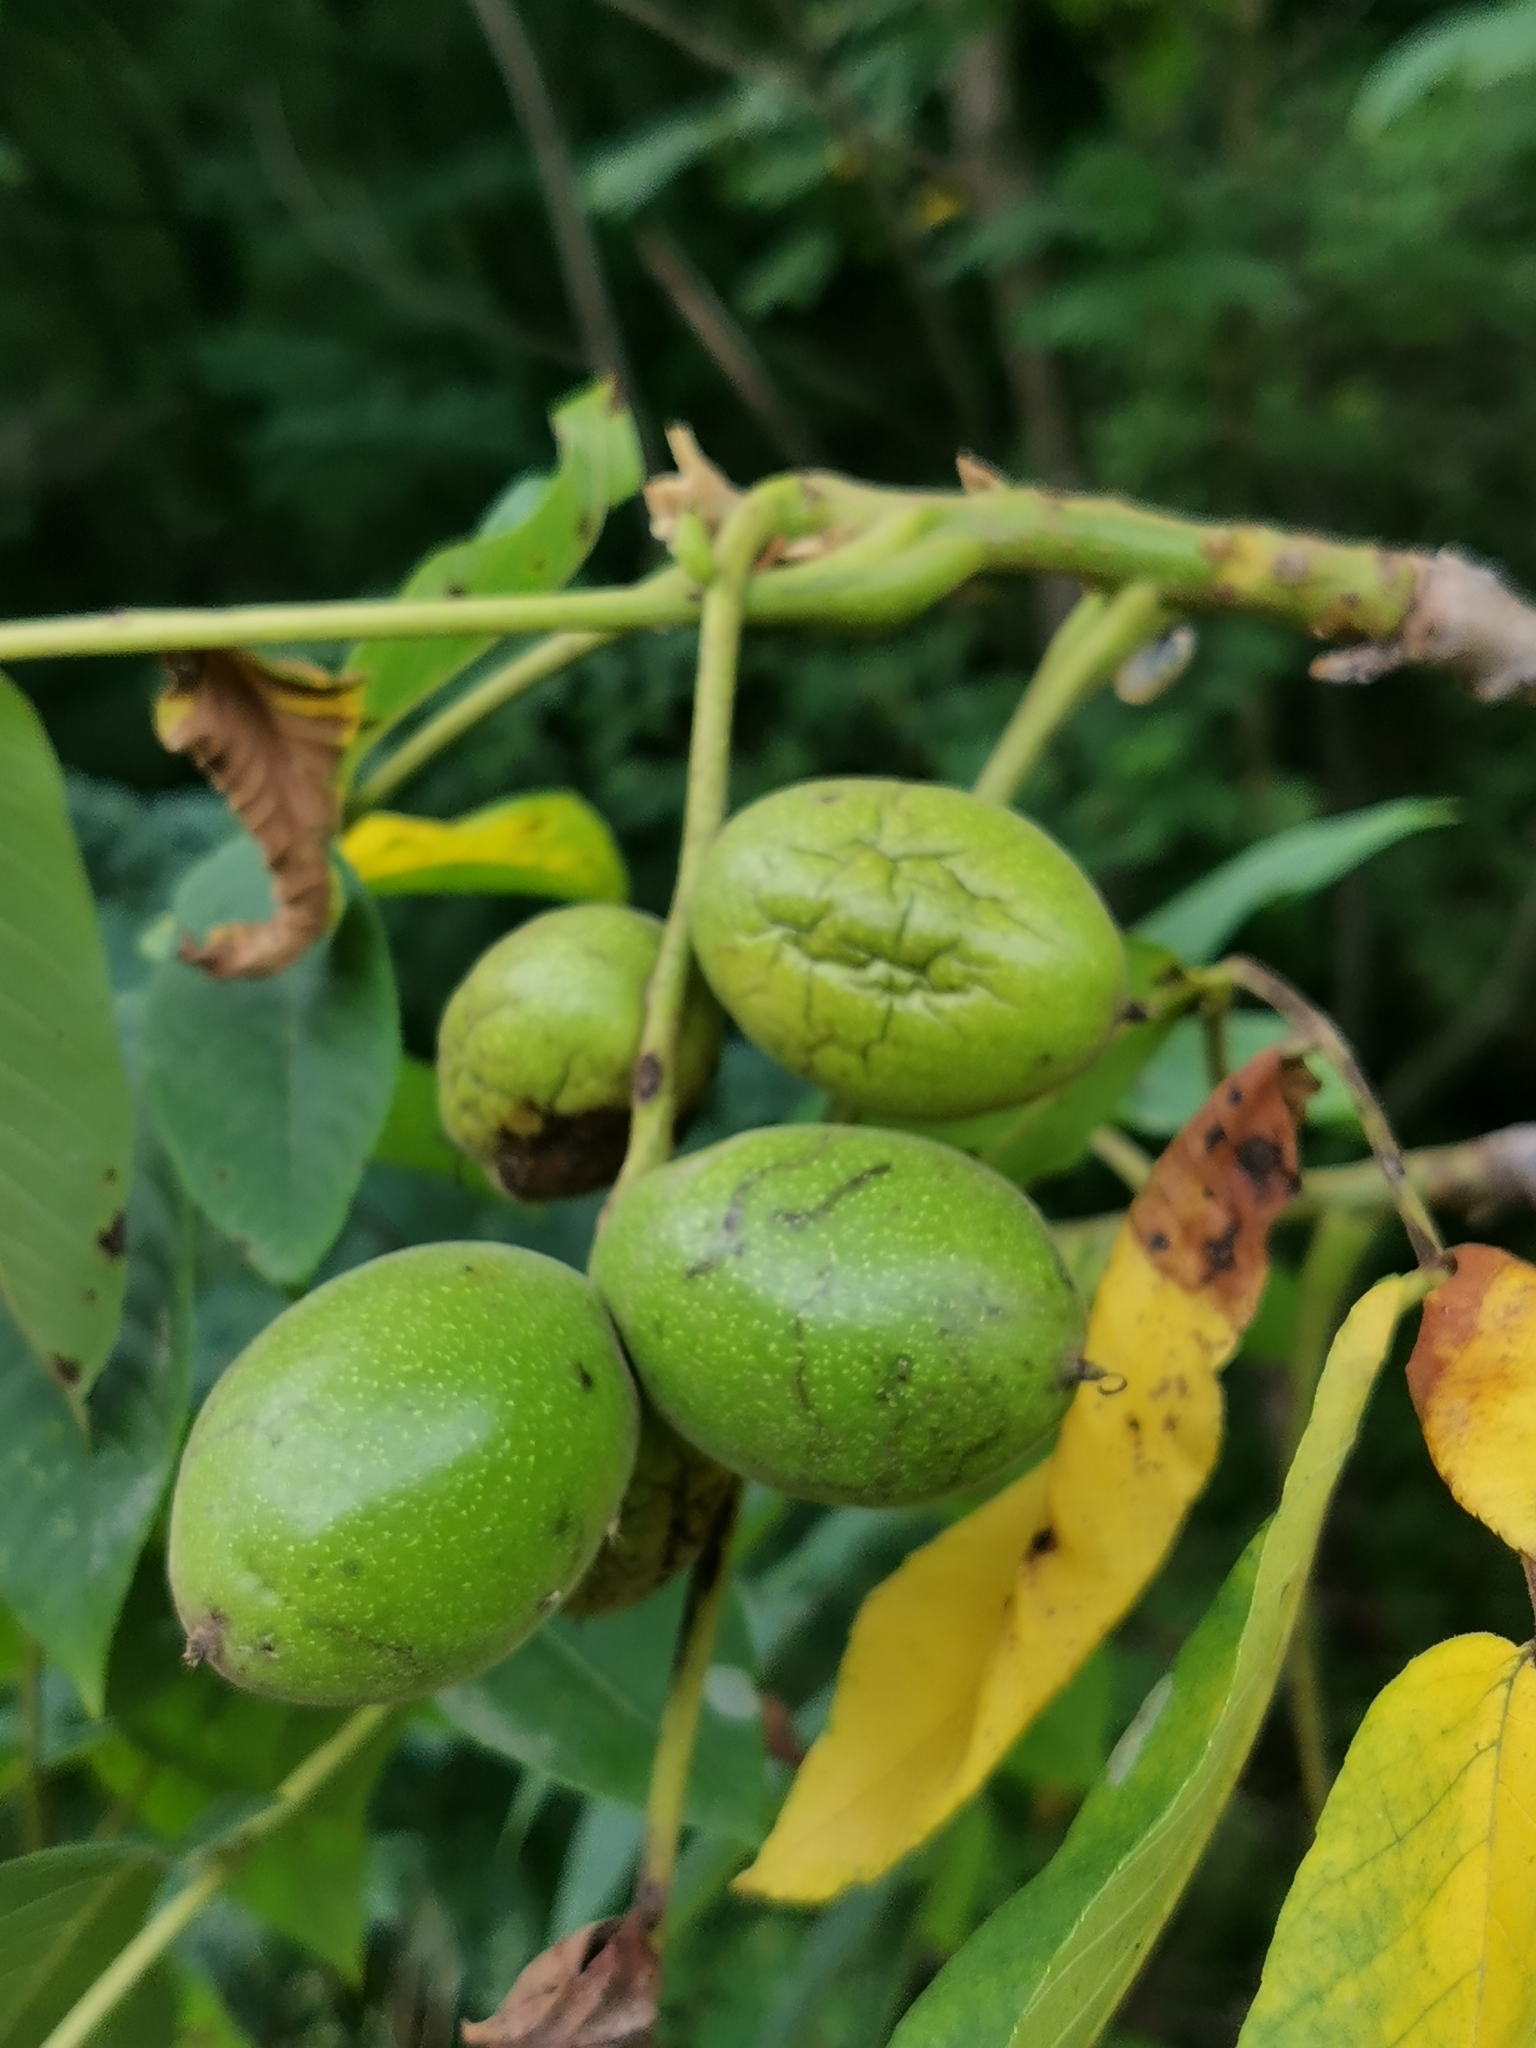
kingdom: Plantae
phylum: Tracheophyta
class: Magnoliopsida
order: Fagales
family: Juglandaceae
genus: Juglans
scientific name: Juglans mandshurica
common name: Manchurian walnut
